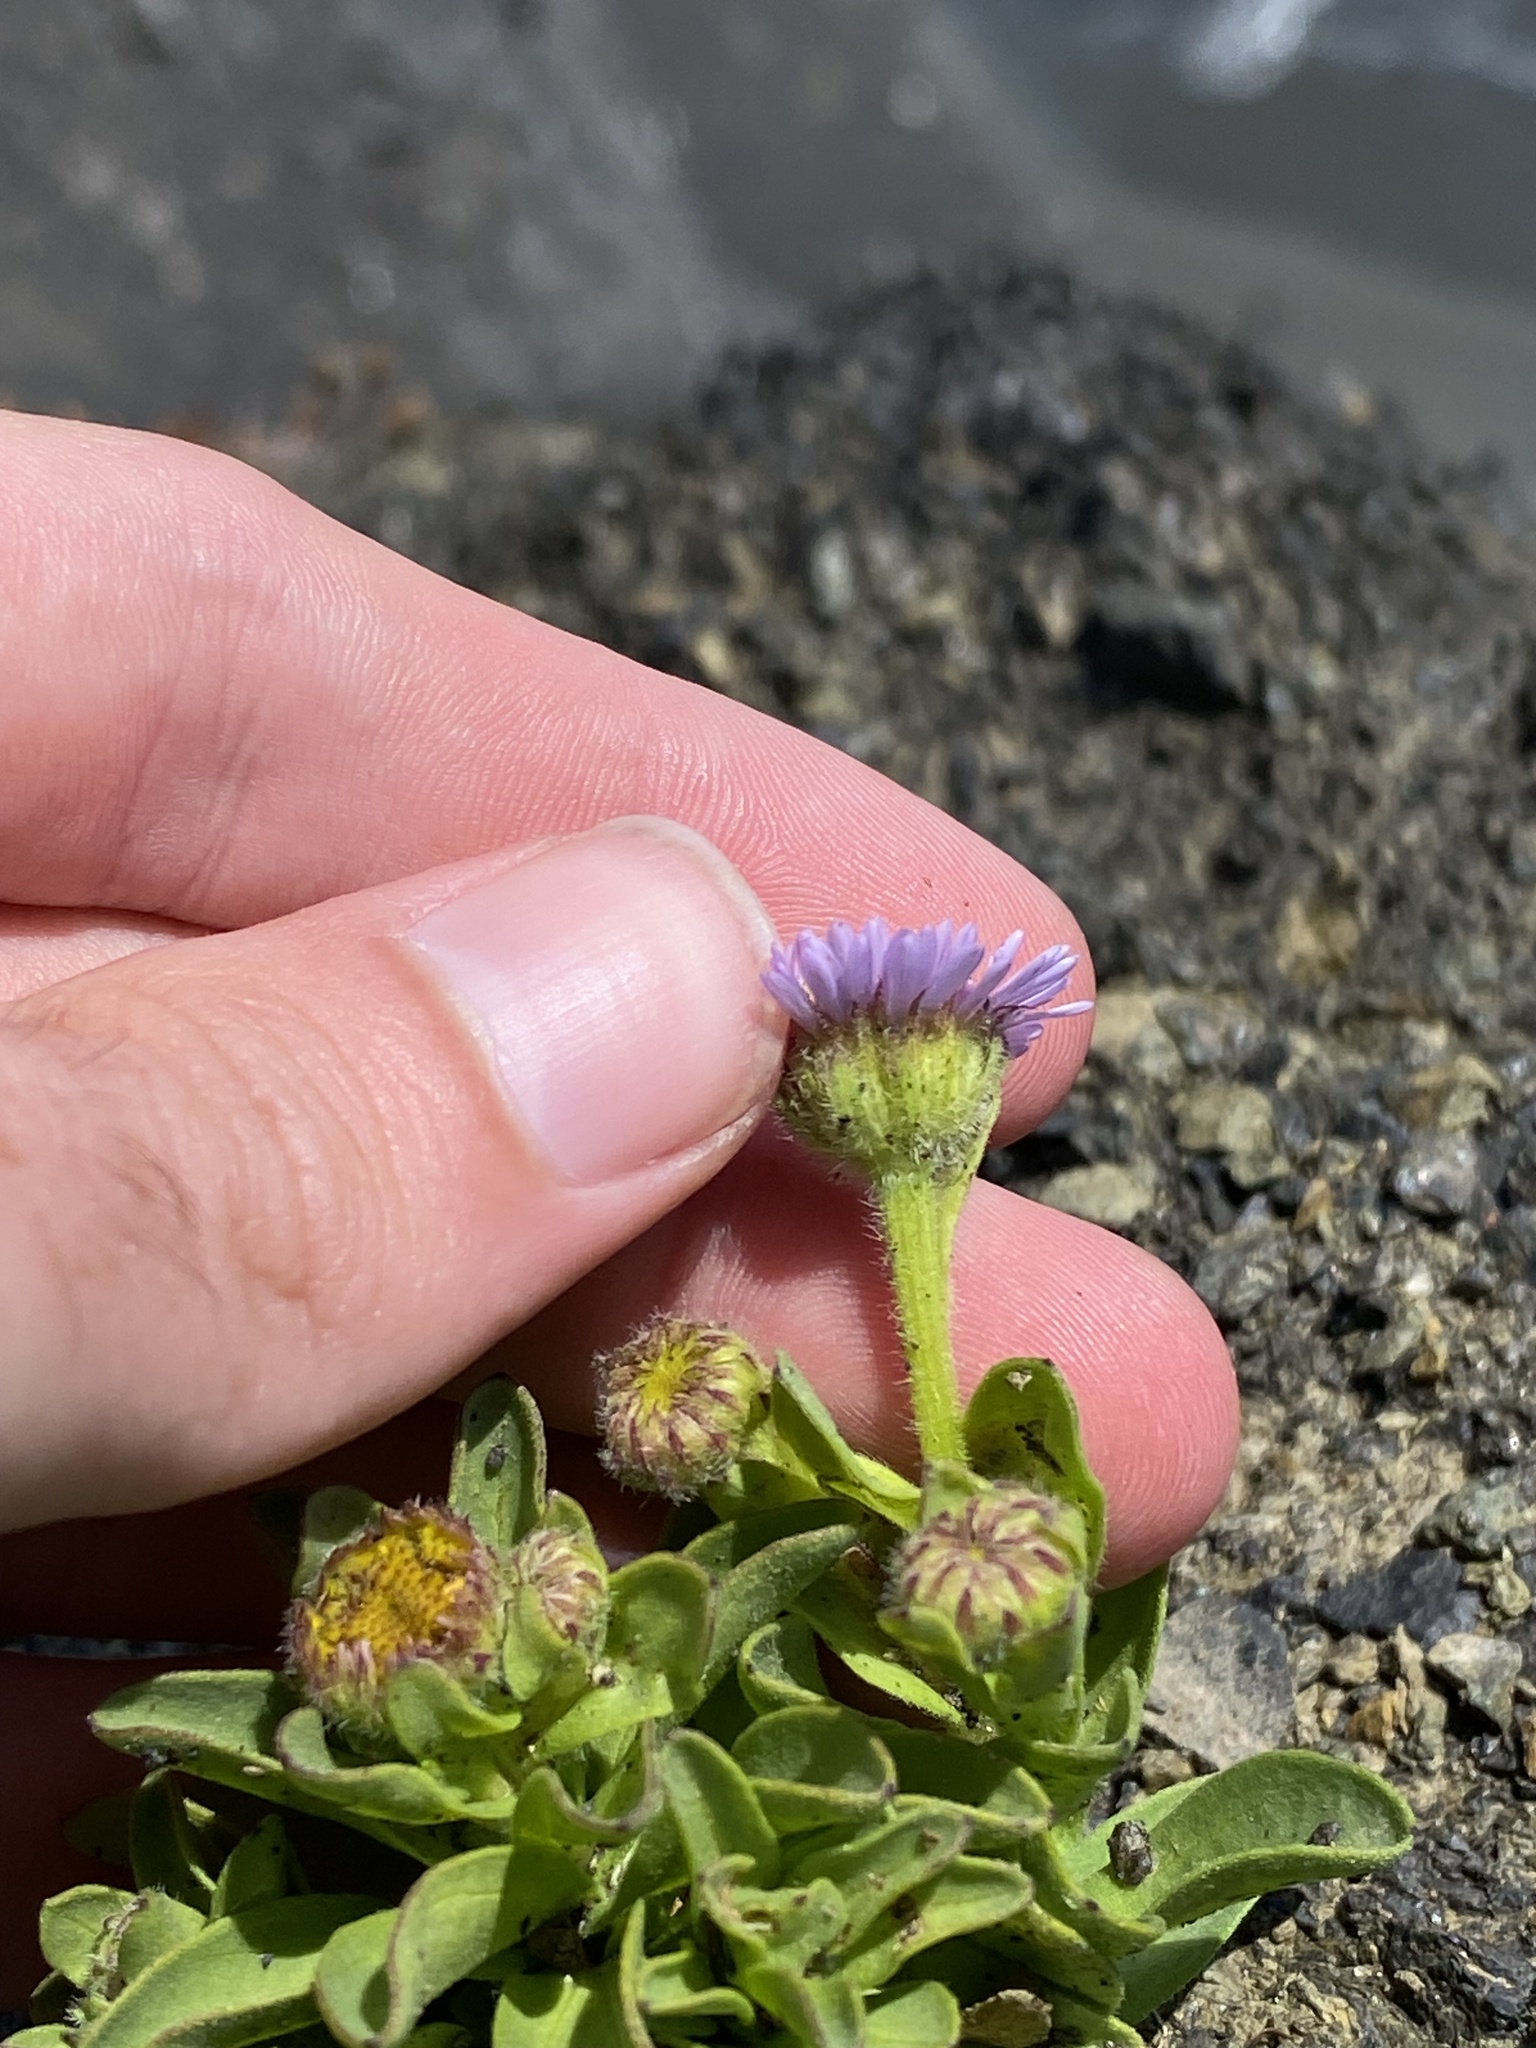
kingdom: Plantae
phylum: Tracheophyta
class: Magnoliopsida
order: Asterales
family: Asteraceae
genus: Erigeron
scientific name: Erigeron glaucus
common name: Seaside daisy
